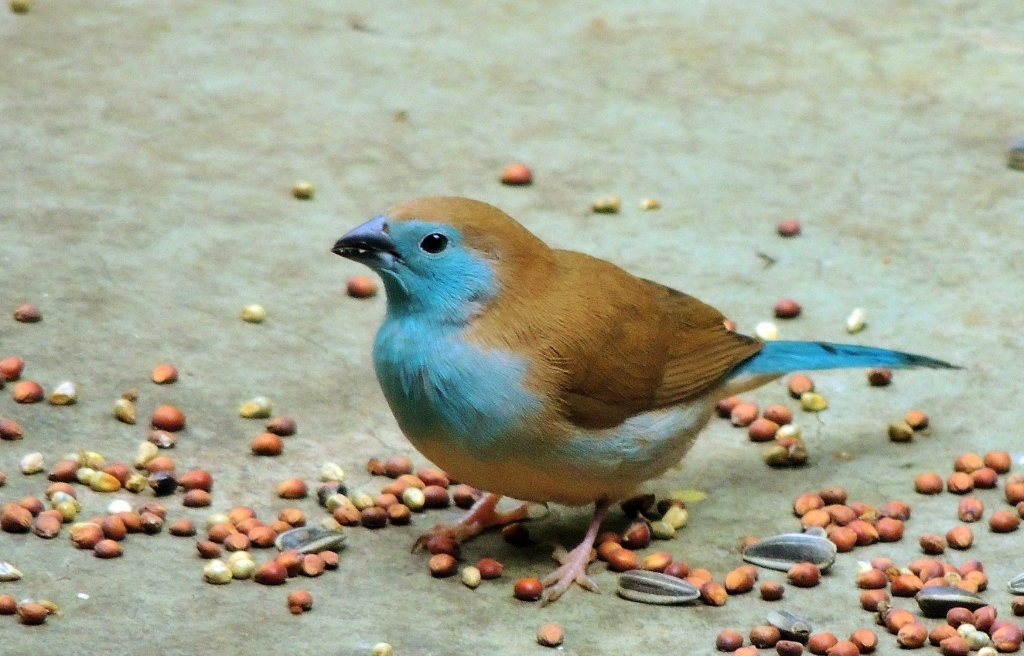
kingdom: Animalia
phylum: Chordata
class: Aves
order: Passeriformes
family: Estrildidae
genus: Uraeginthus
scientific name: Uraeginthus angolensis
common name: Blue waxbill
